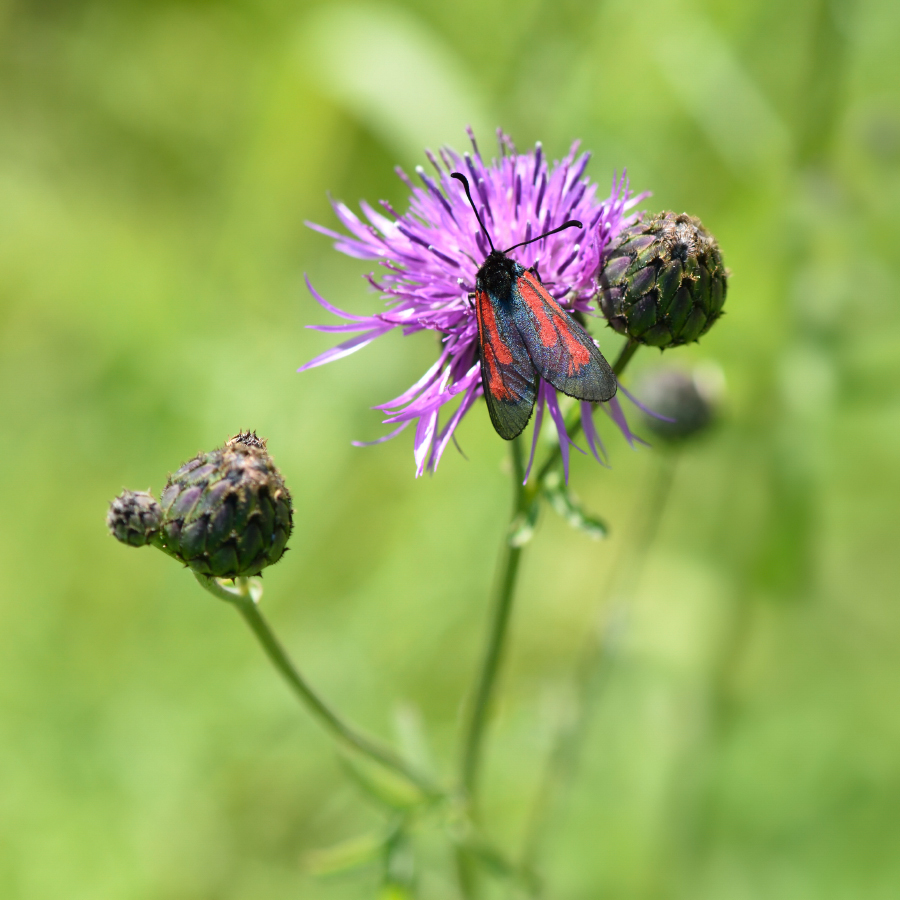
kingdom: Animalia
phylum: Arthropoda
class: Insecta
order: Lepidoptera
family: Zygaenidae
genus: Zygaena
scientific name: Zygaena minos
